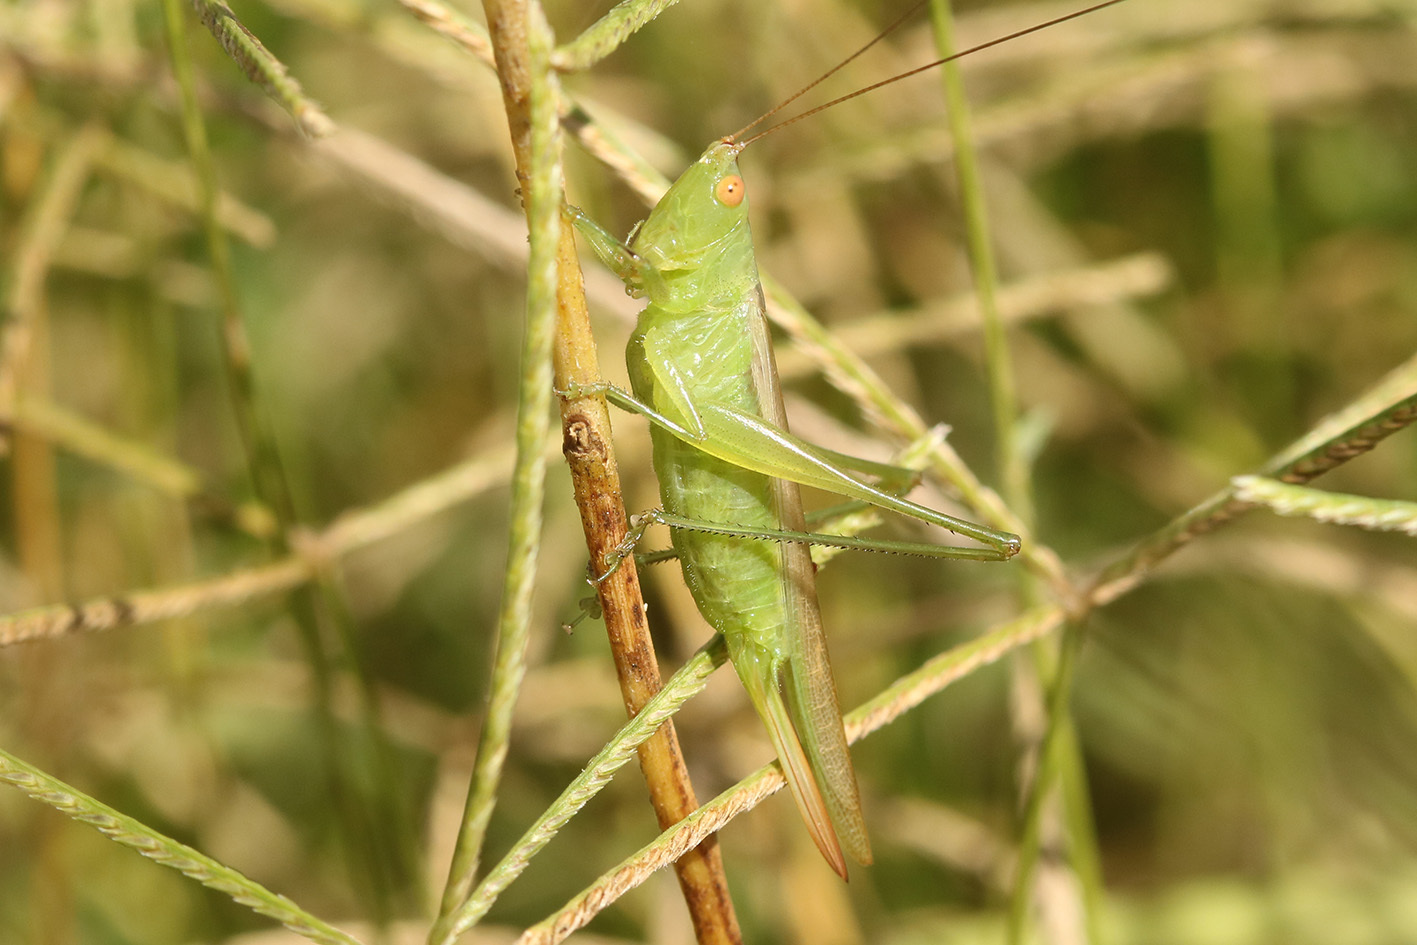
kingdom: Animalia
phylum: Arthropoda
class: Insecta
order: Orthoptera
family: Tettigoniidae
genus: Conocephalus
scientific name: Conocephalus longipes
